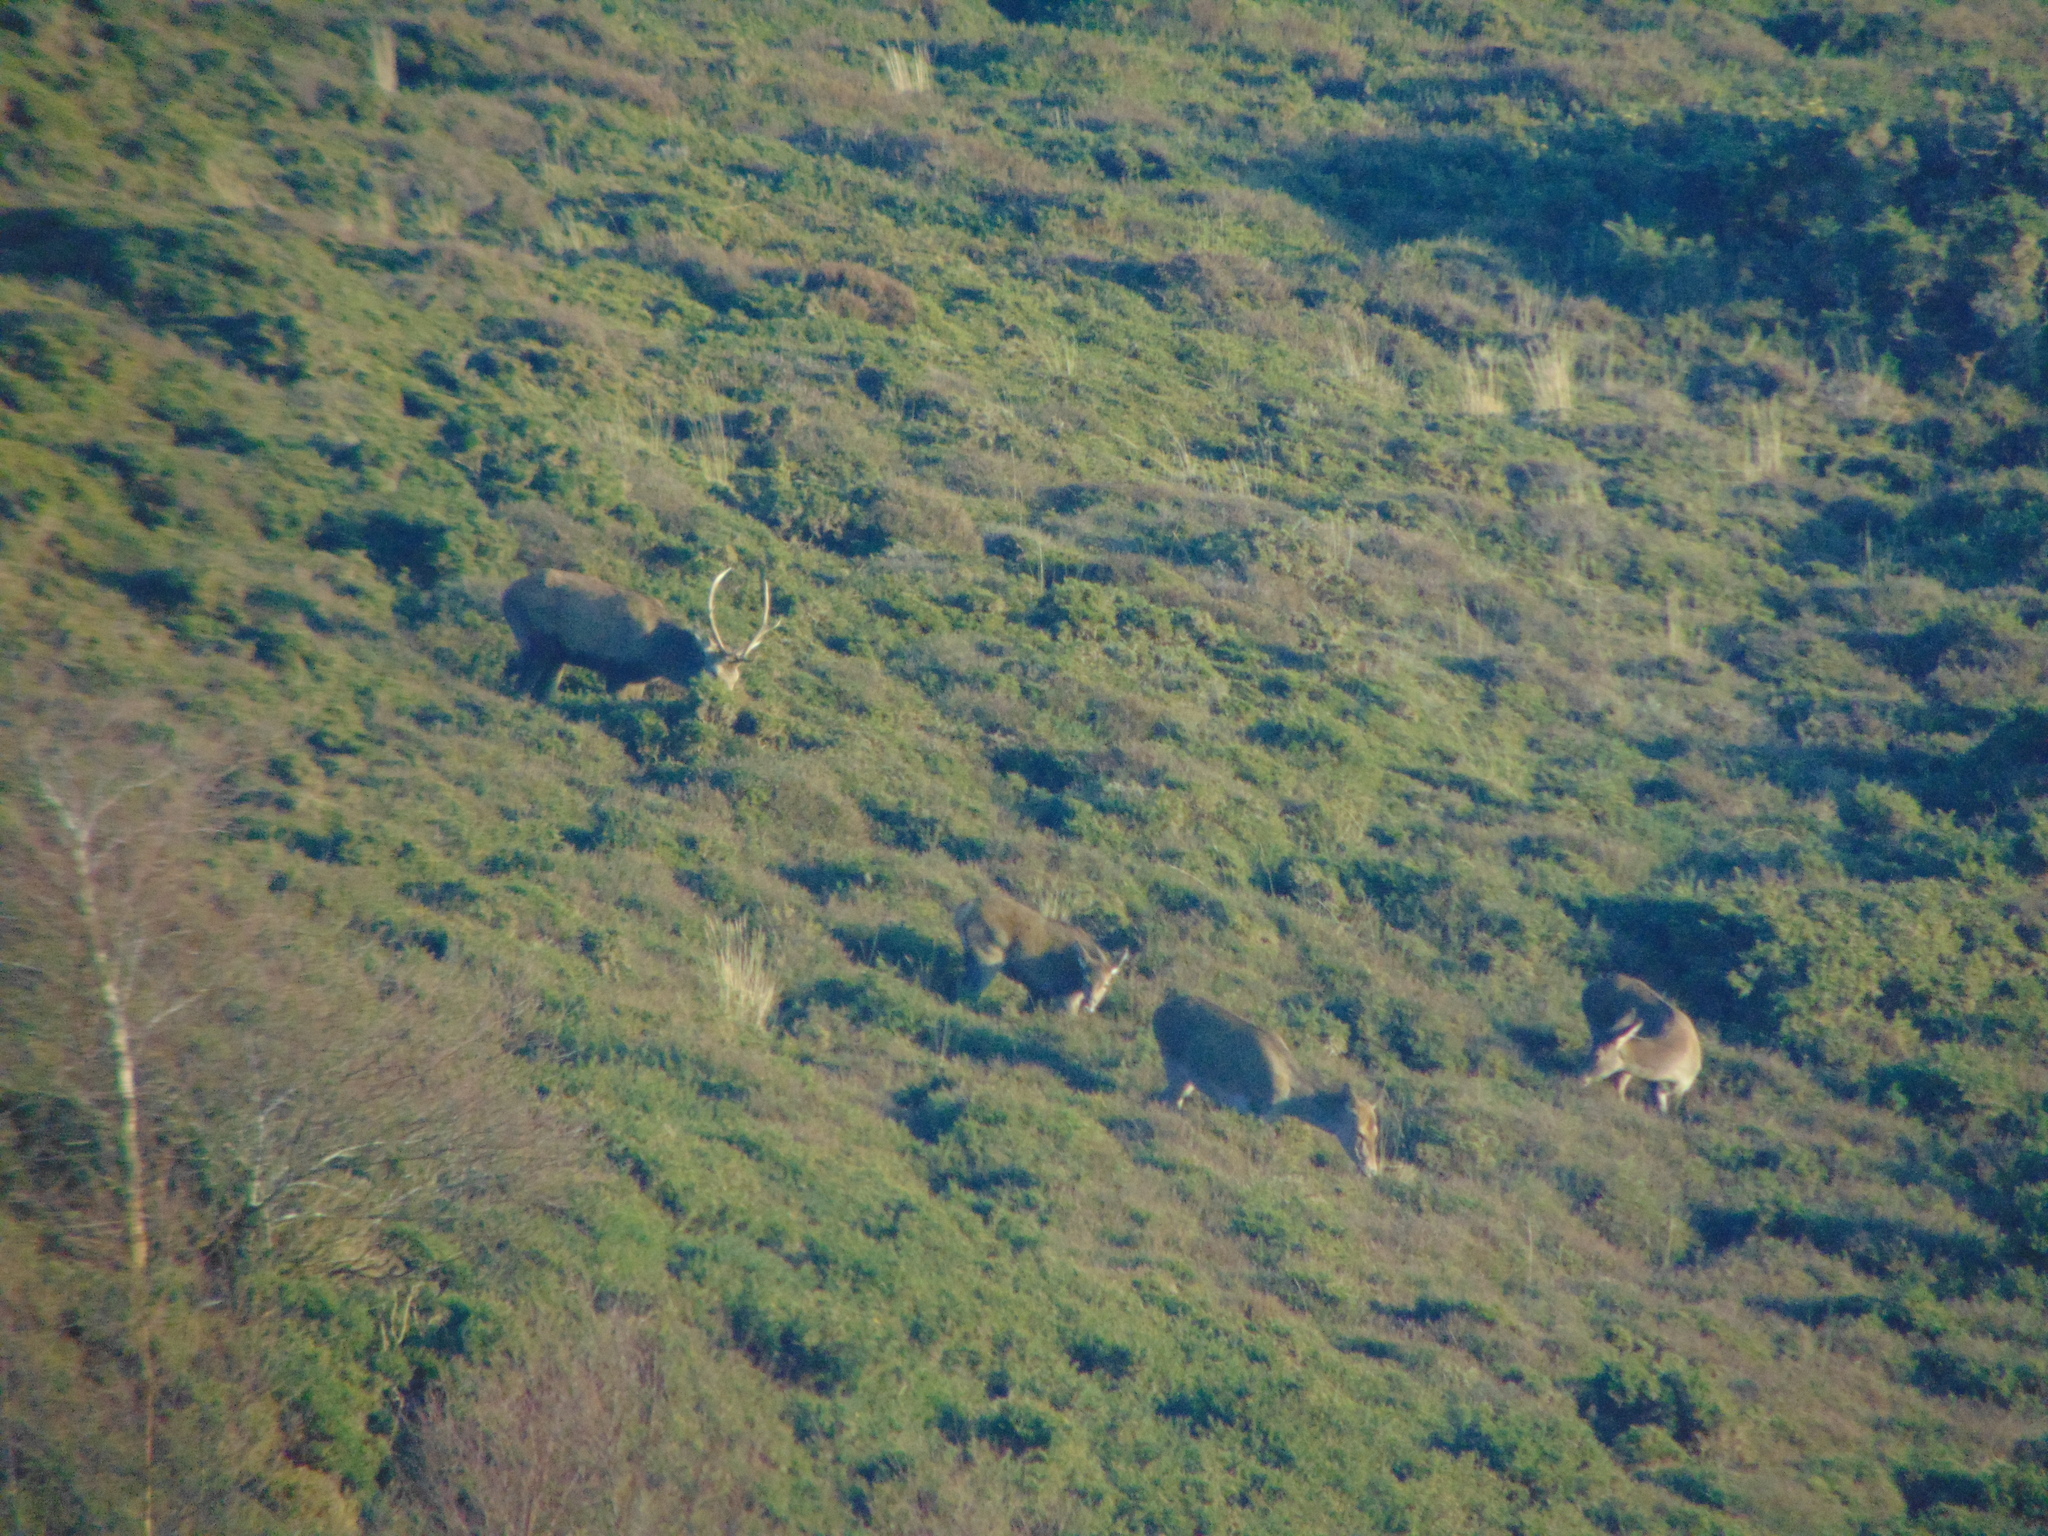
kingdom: Animalia
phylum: Chordata
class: Mammalia
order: Artiodactyla
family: Cervidae
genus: Cervus
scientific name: Cervus elaphus
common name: Red deer
